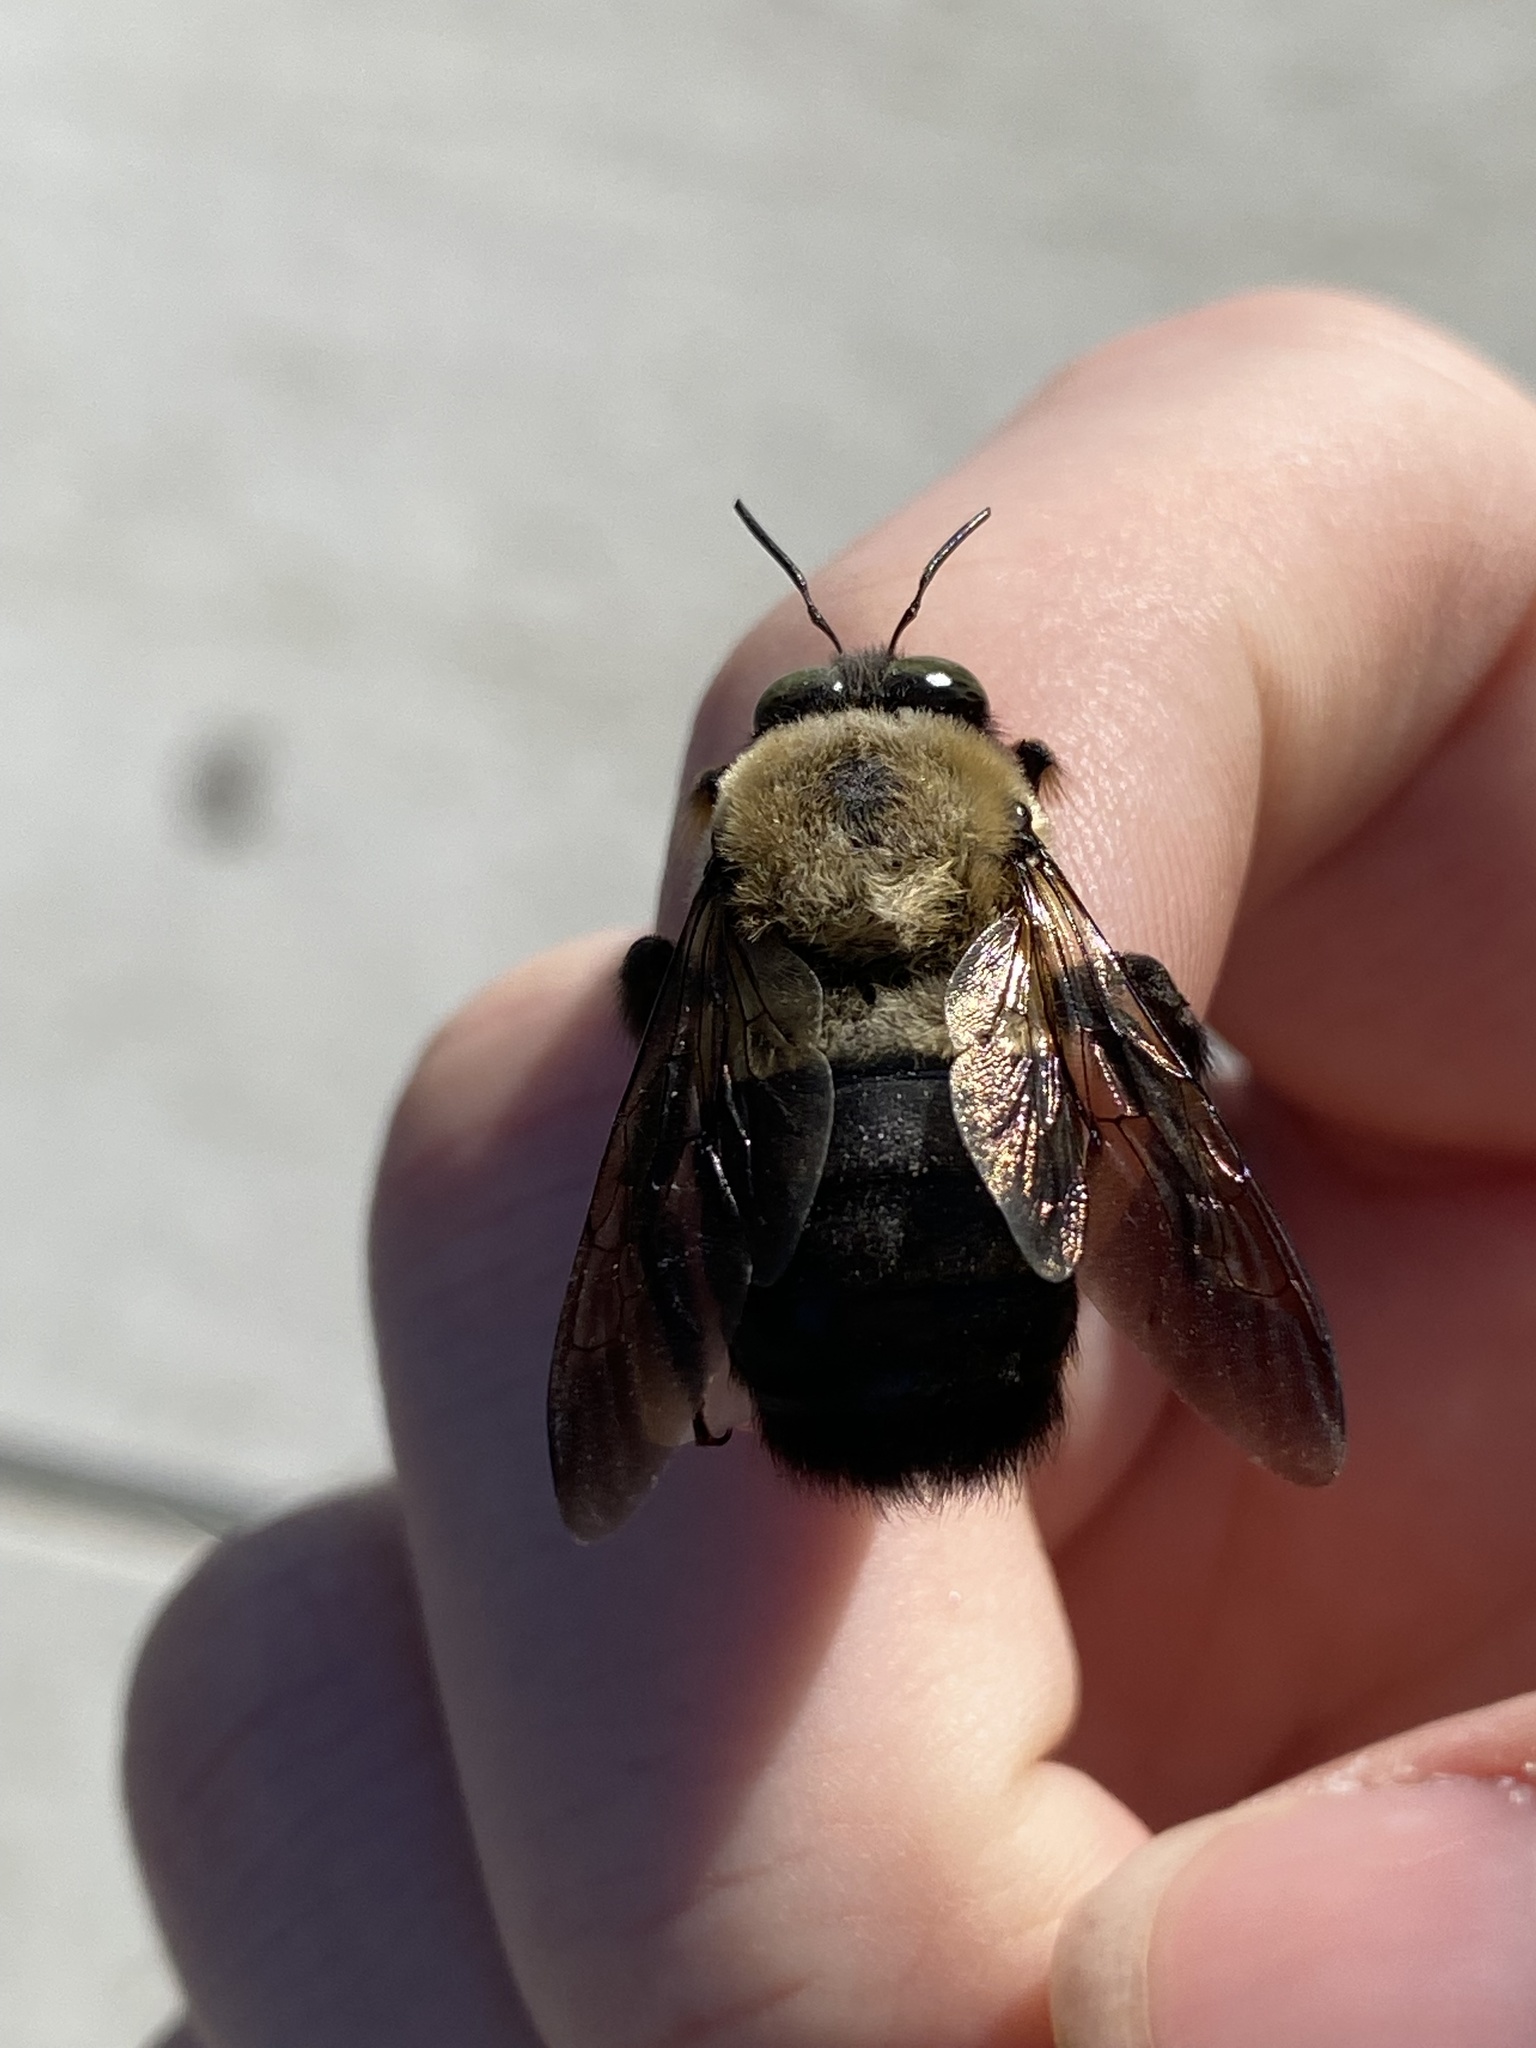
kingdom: Animalia
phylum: Arthropoda
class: Insecta
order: Hymenoptera
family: Apidae
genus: Xylocopa
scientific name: Xylocopa virginica
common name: Carpenter bee
